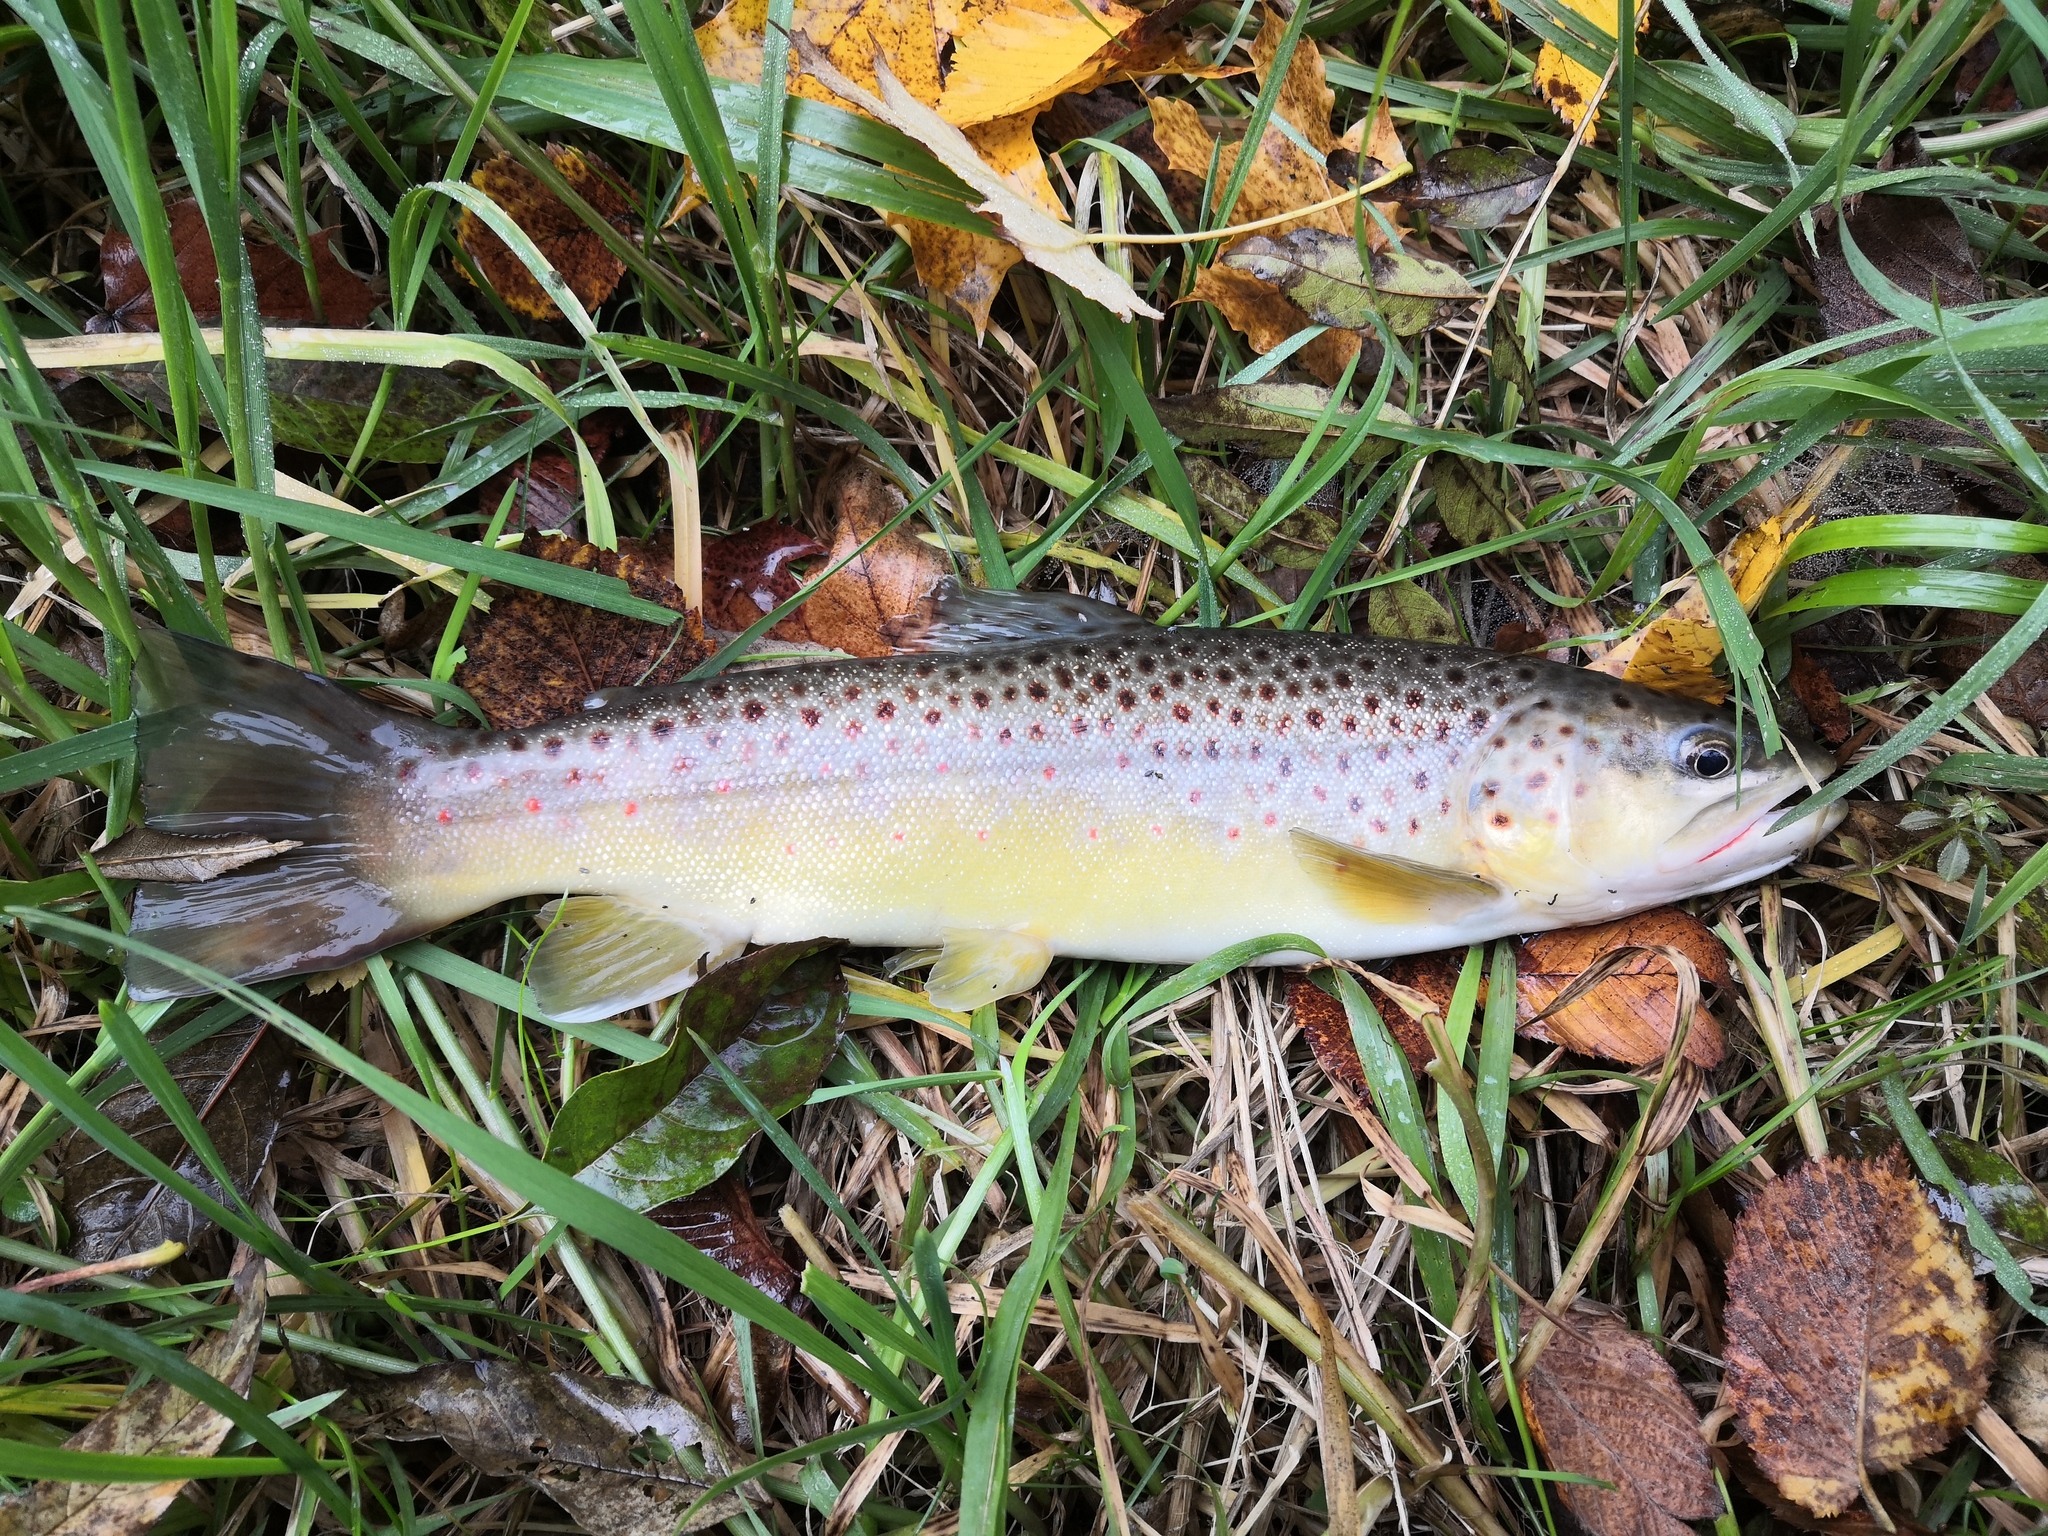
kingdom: Animalia
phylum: Chordata
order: Salmoniformes
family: Salmonidae
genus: Salmo
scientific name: Salmo trutta
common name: Brown trout
